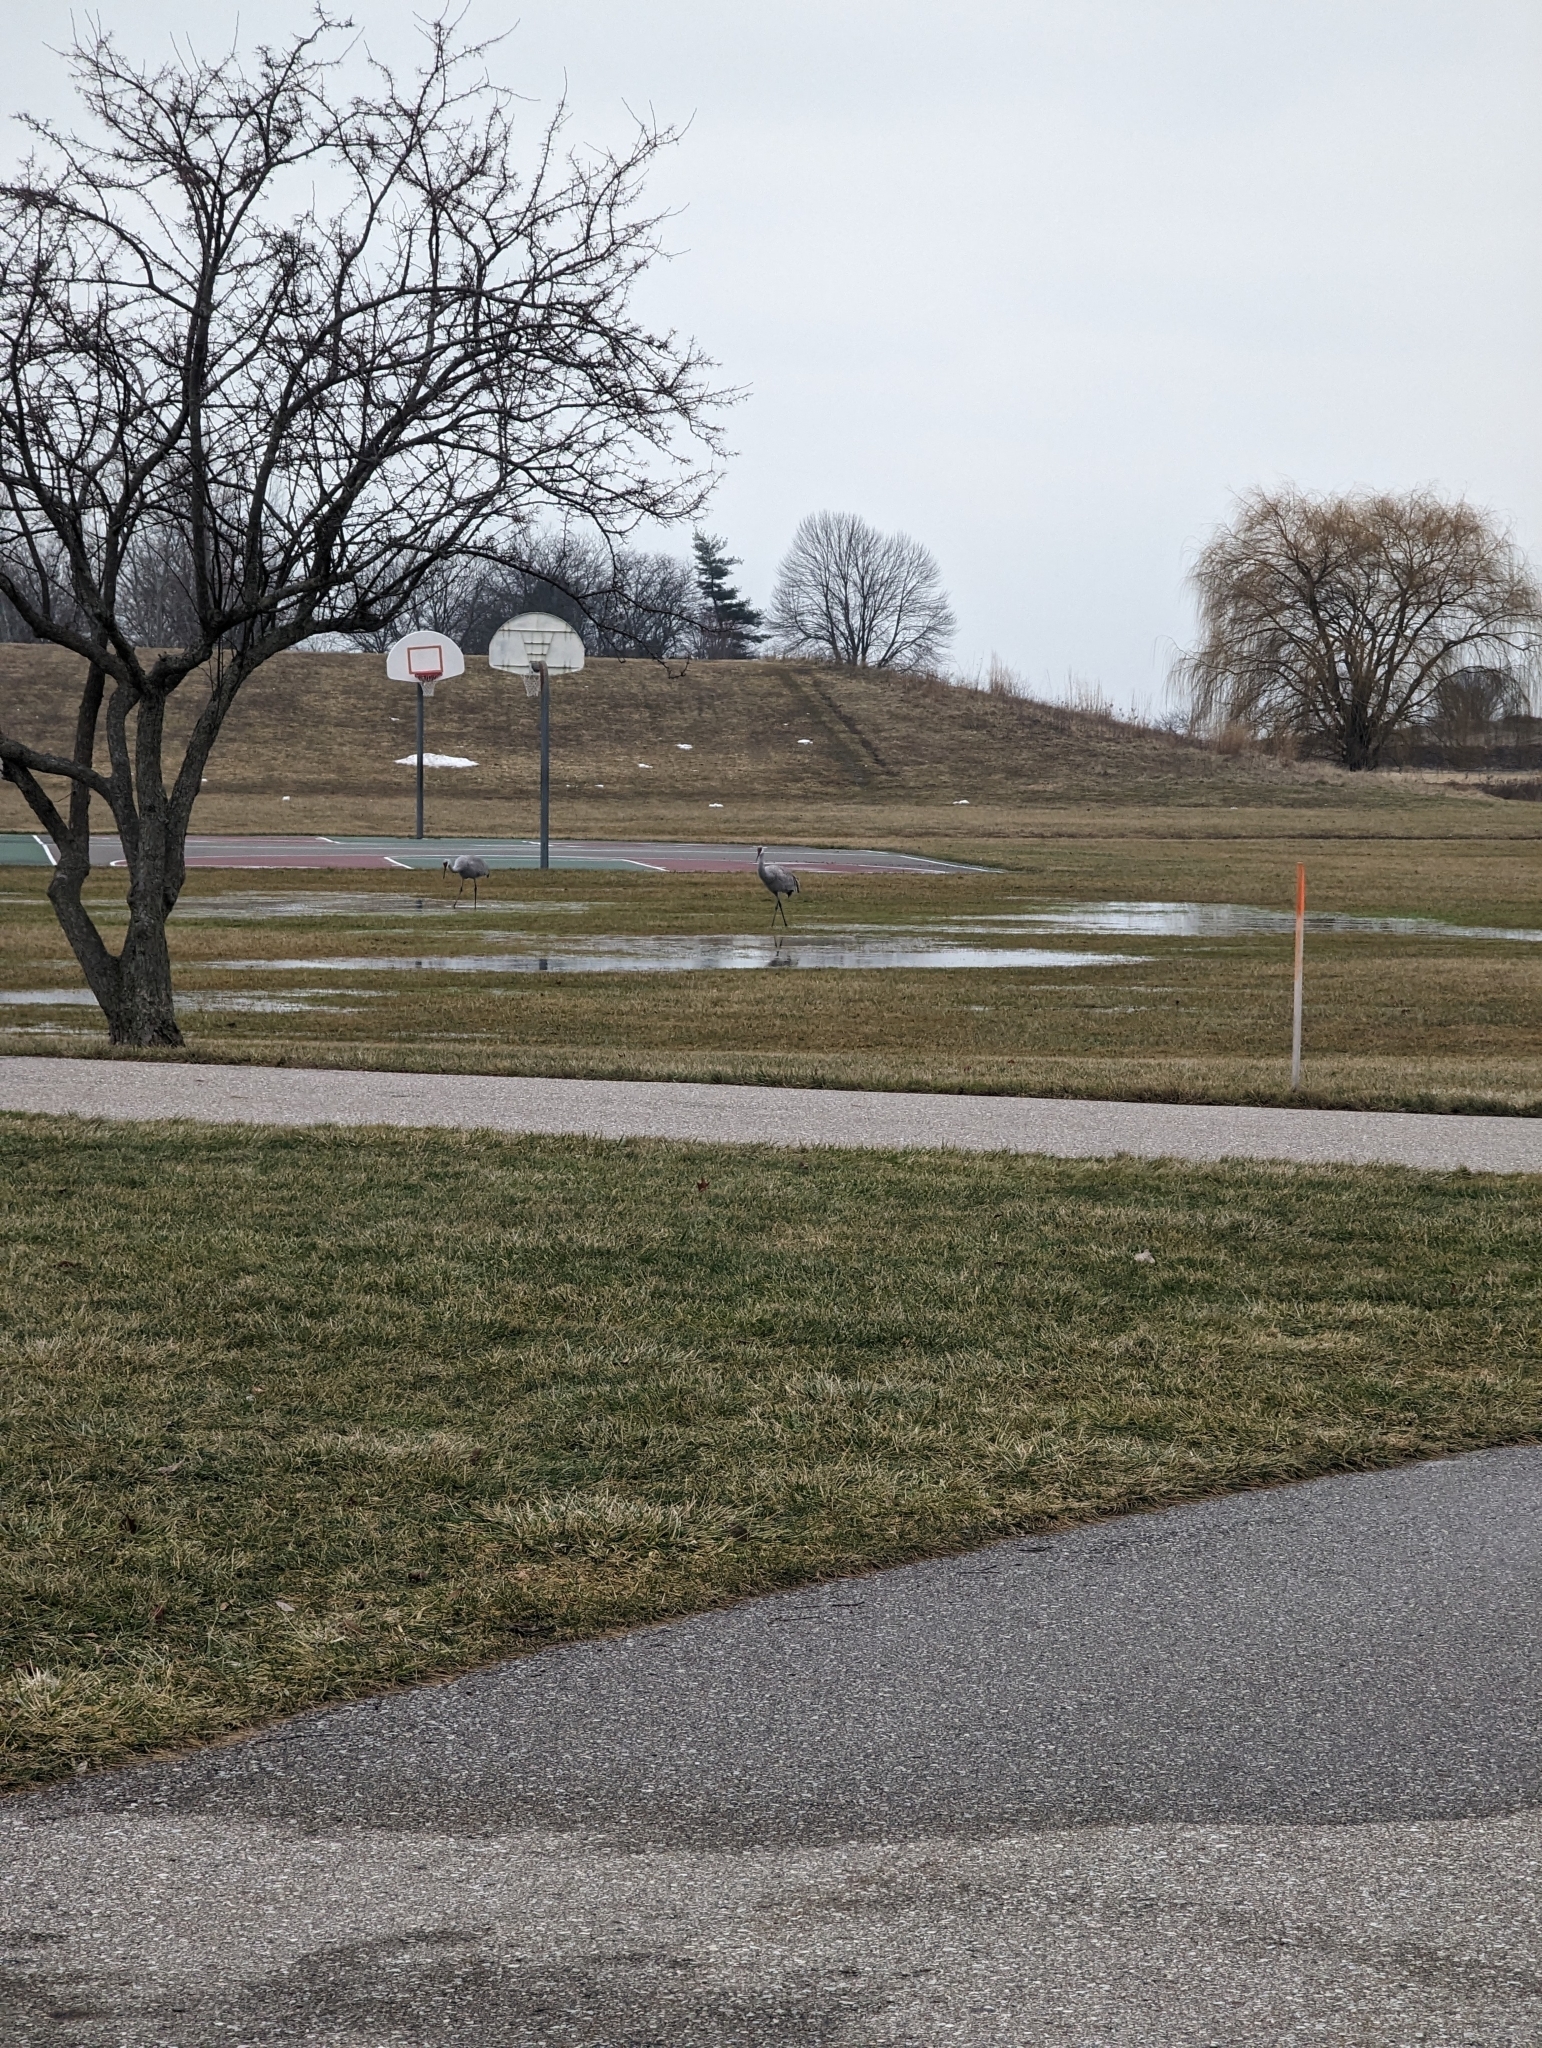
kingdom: Animalia
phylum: Chordata
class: Aves
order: Gruiformes
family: Gruidae
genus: Grus
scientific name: Grus canadensis
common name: Sandhill crane
